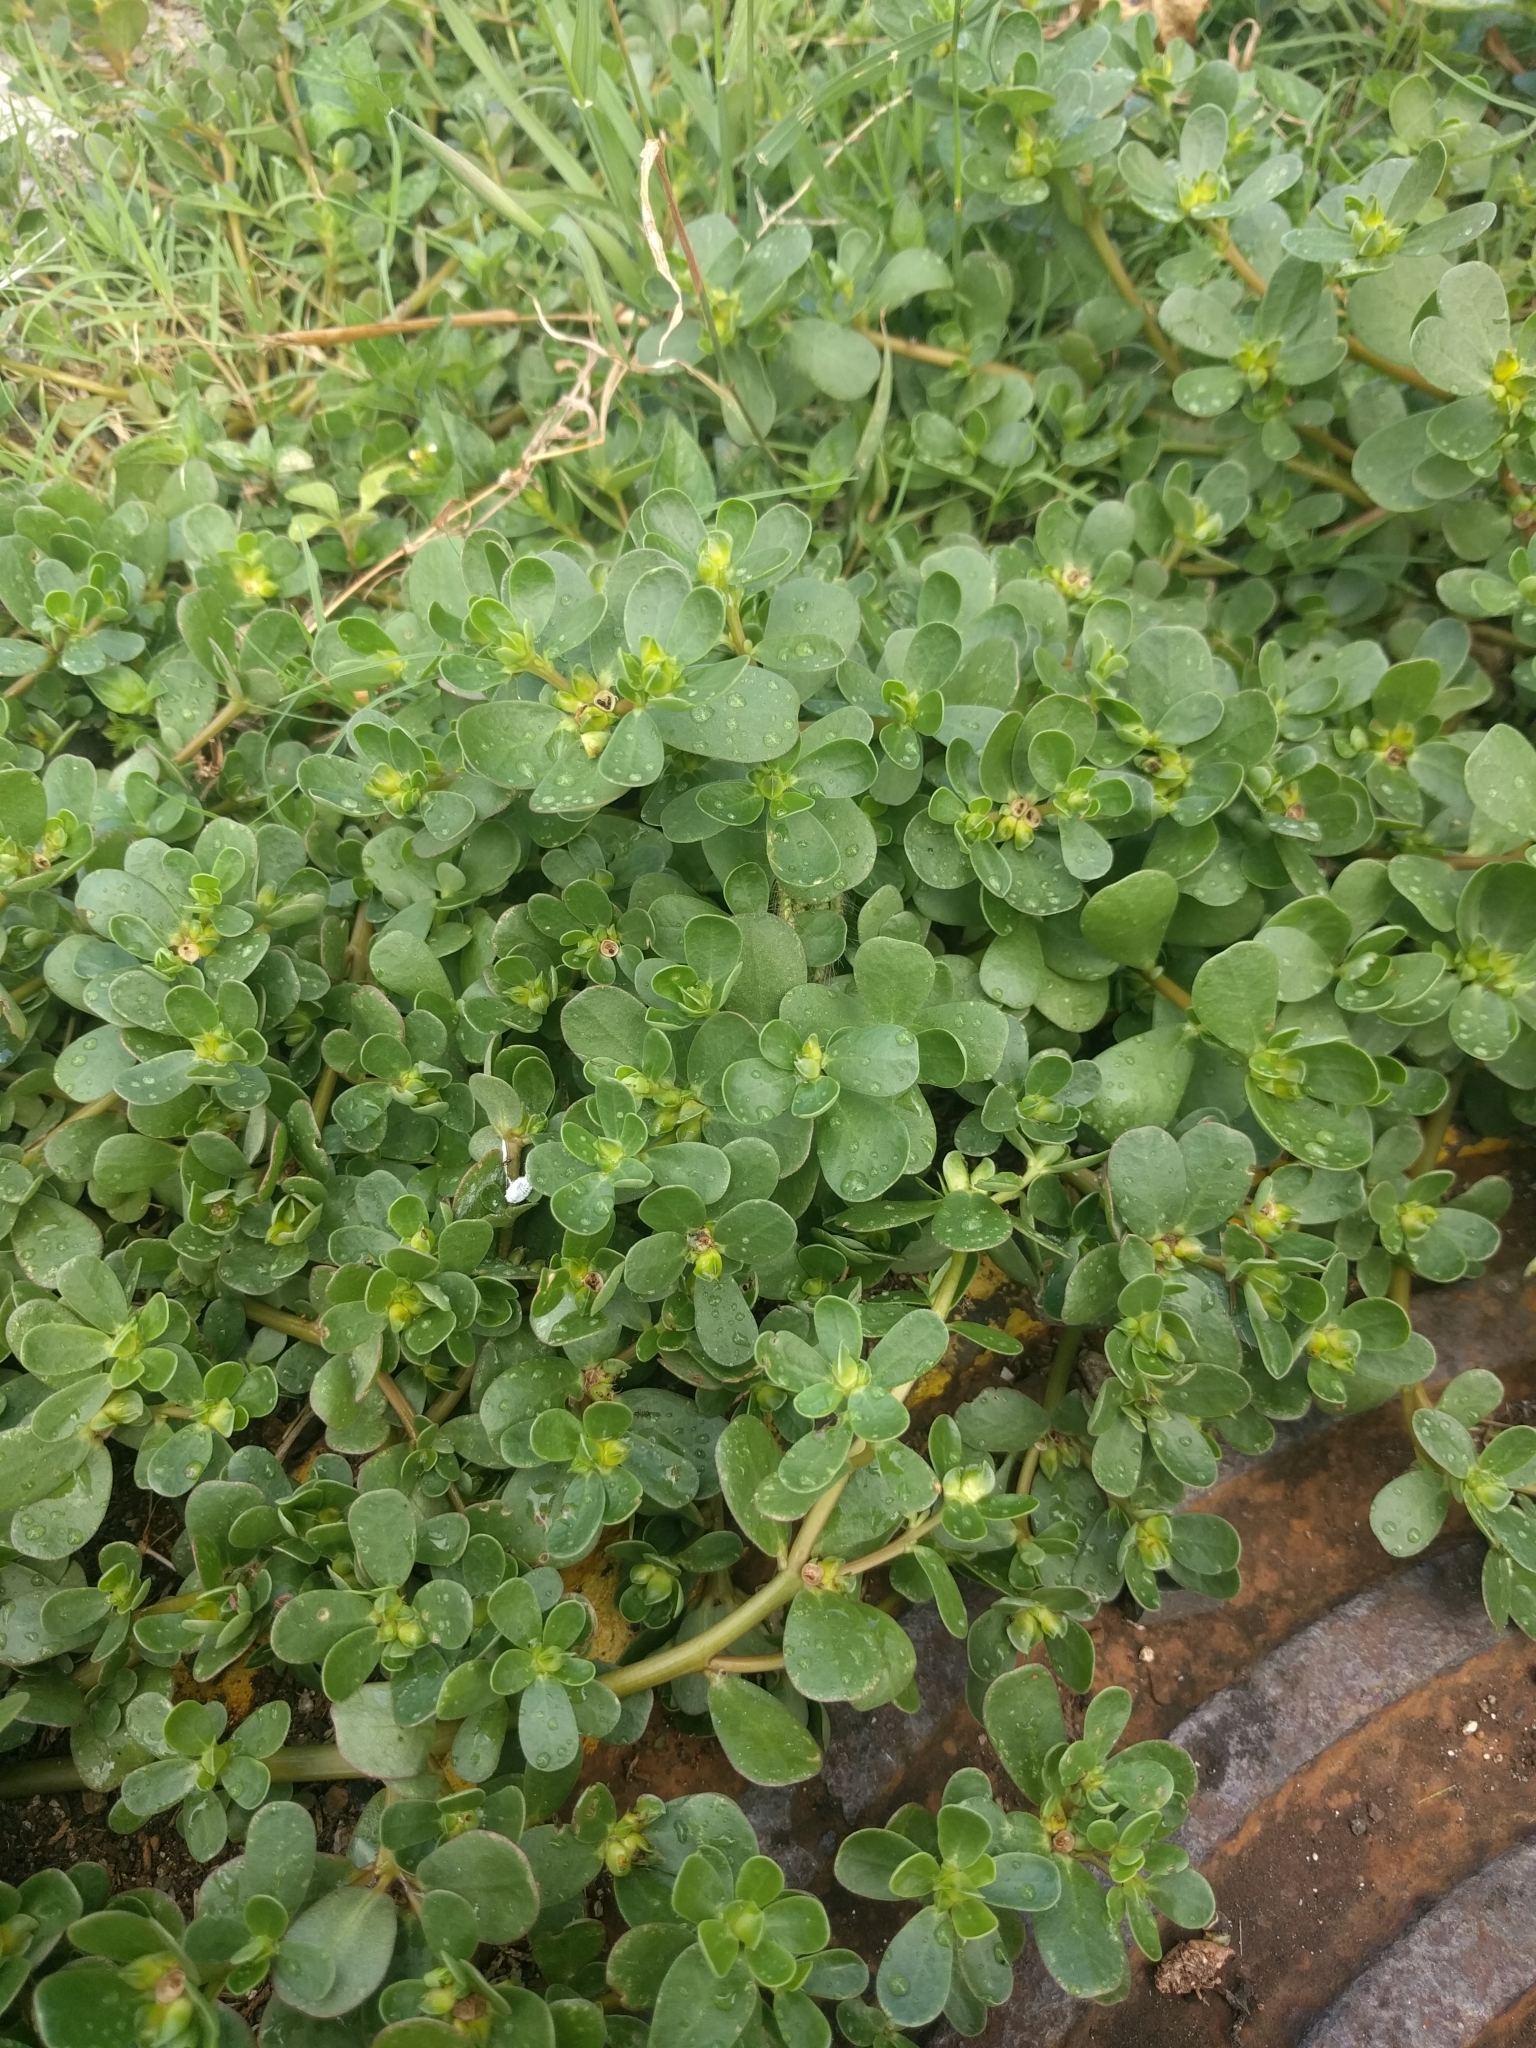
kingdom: Plantae
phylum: Tracheophyta
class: Magnoliopsida
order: Caryophyllales
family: Portulacaceae
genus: Portulaca
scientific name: Portulaca oleracea
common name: Common purslane
